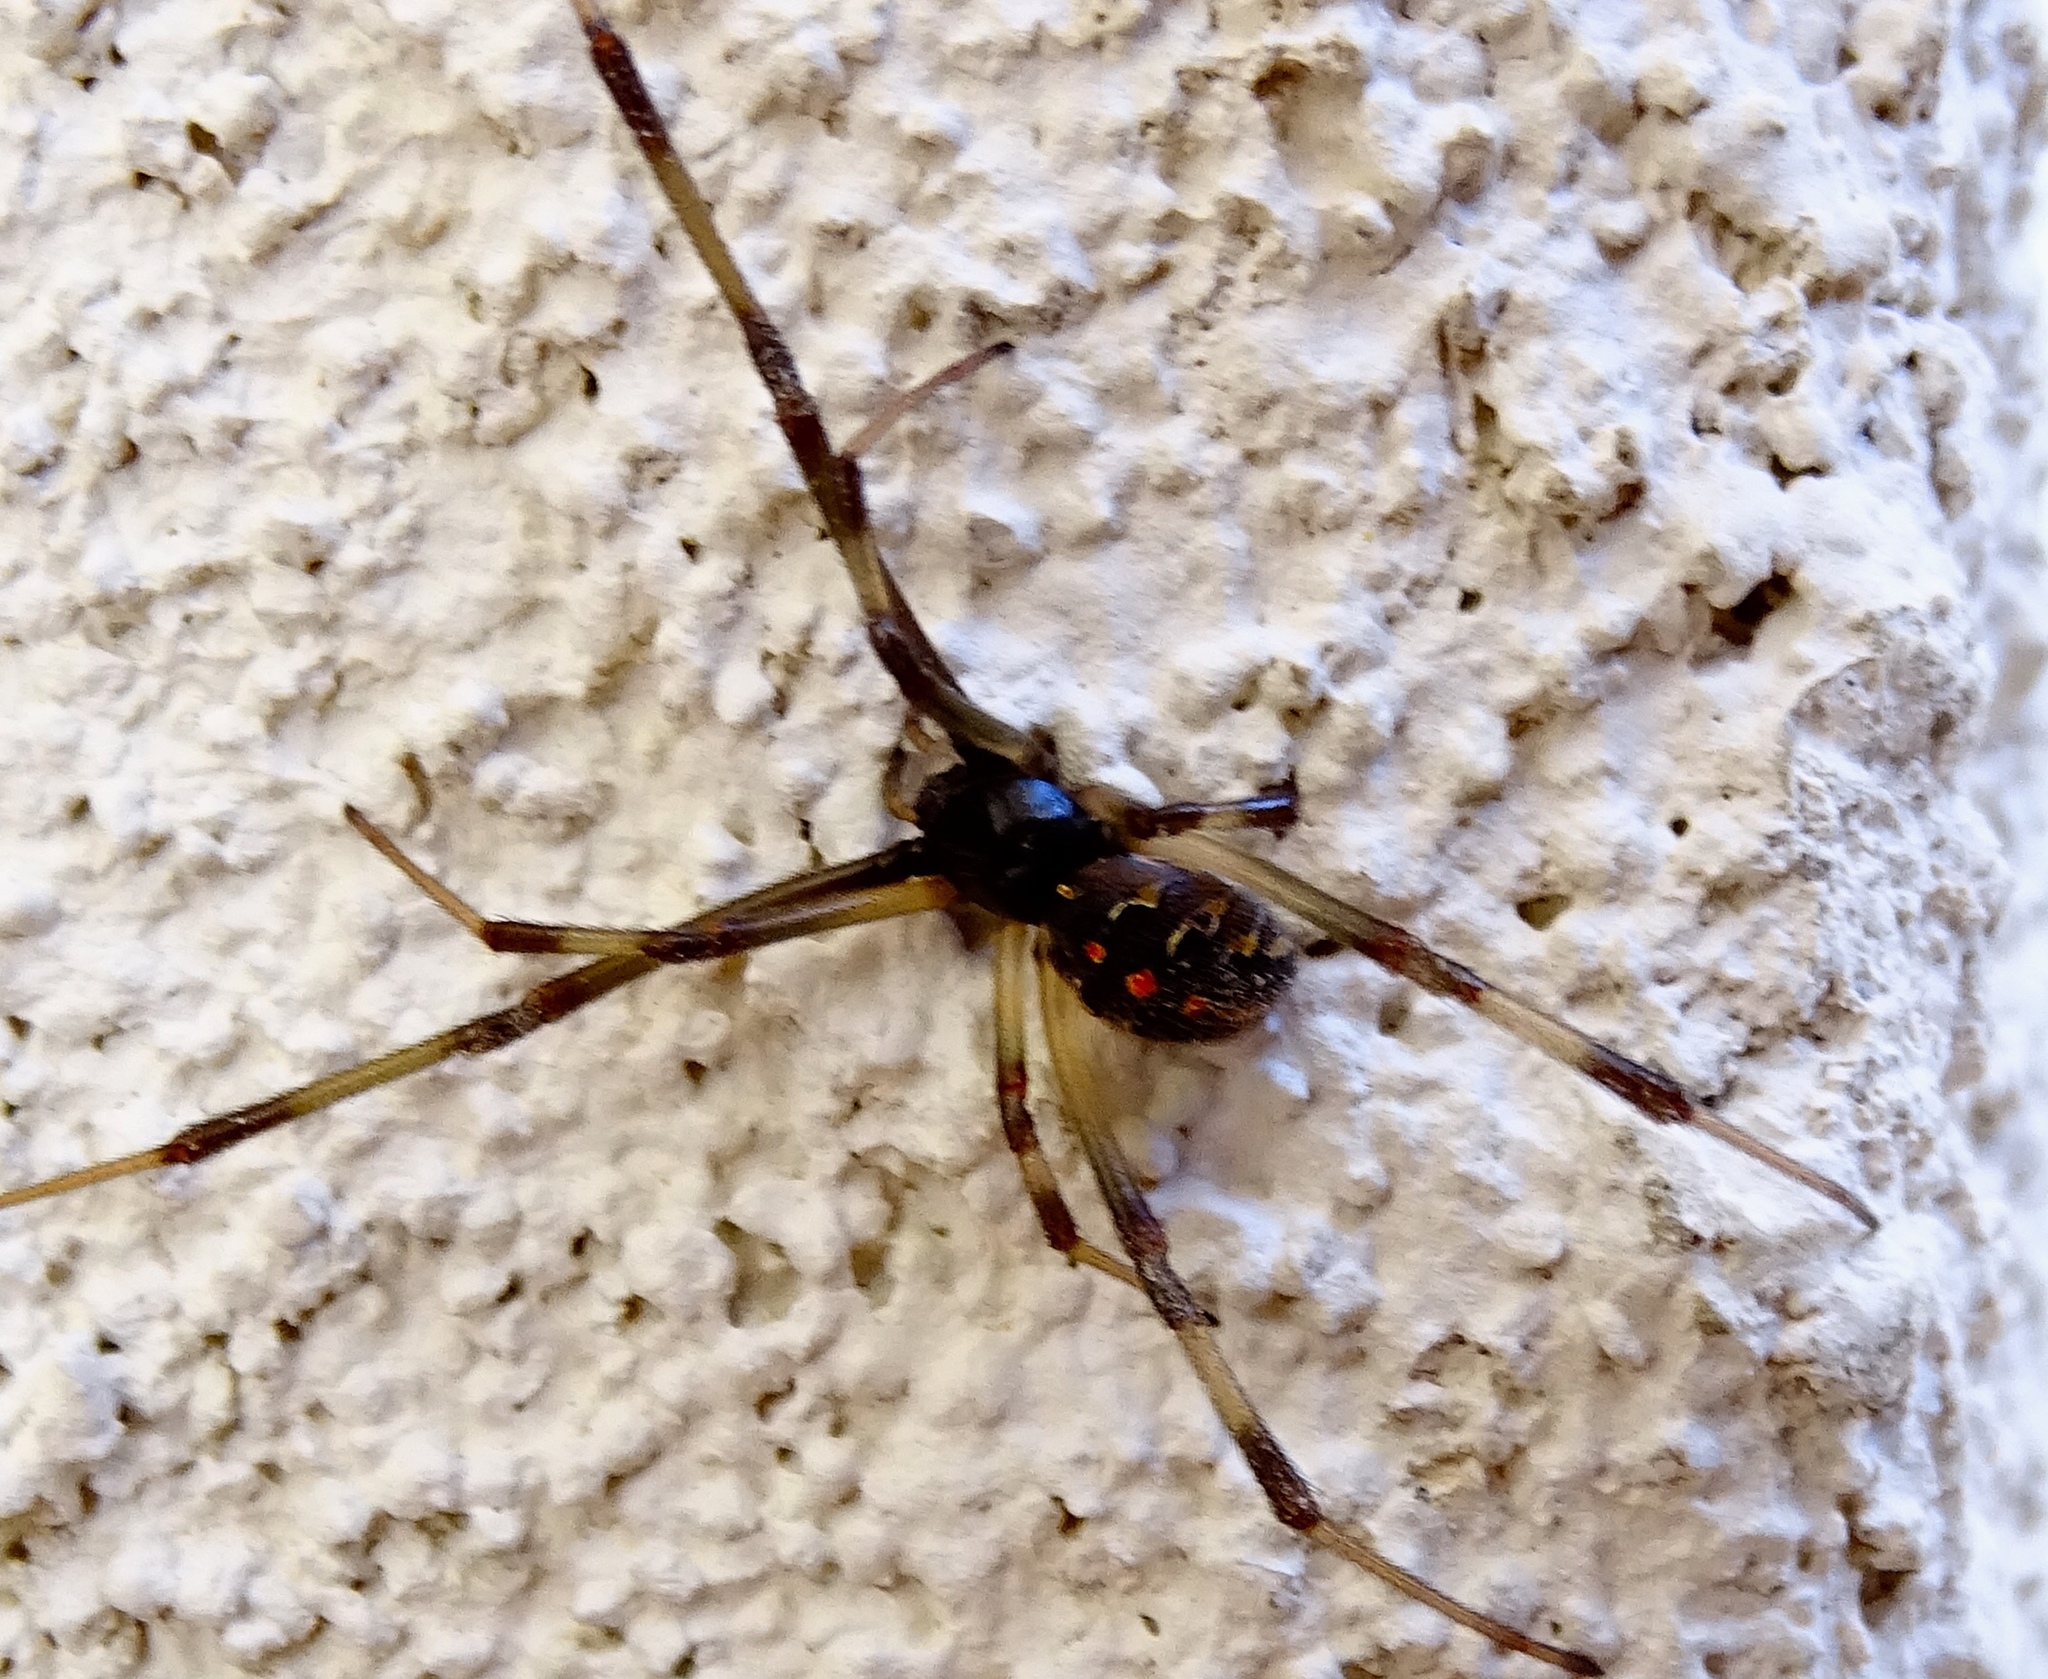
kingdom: Animalia
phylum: Arthropoda
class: Arachnida
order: Araneae
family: Theridiidae
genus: Latrodectus
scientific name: Latrodectus geometricus
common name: Brown widow spider
